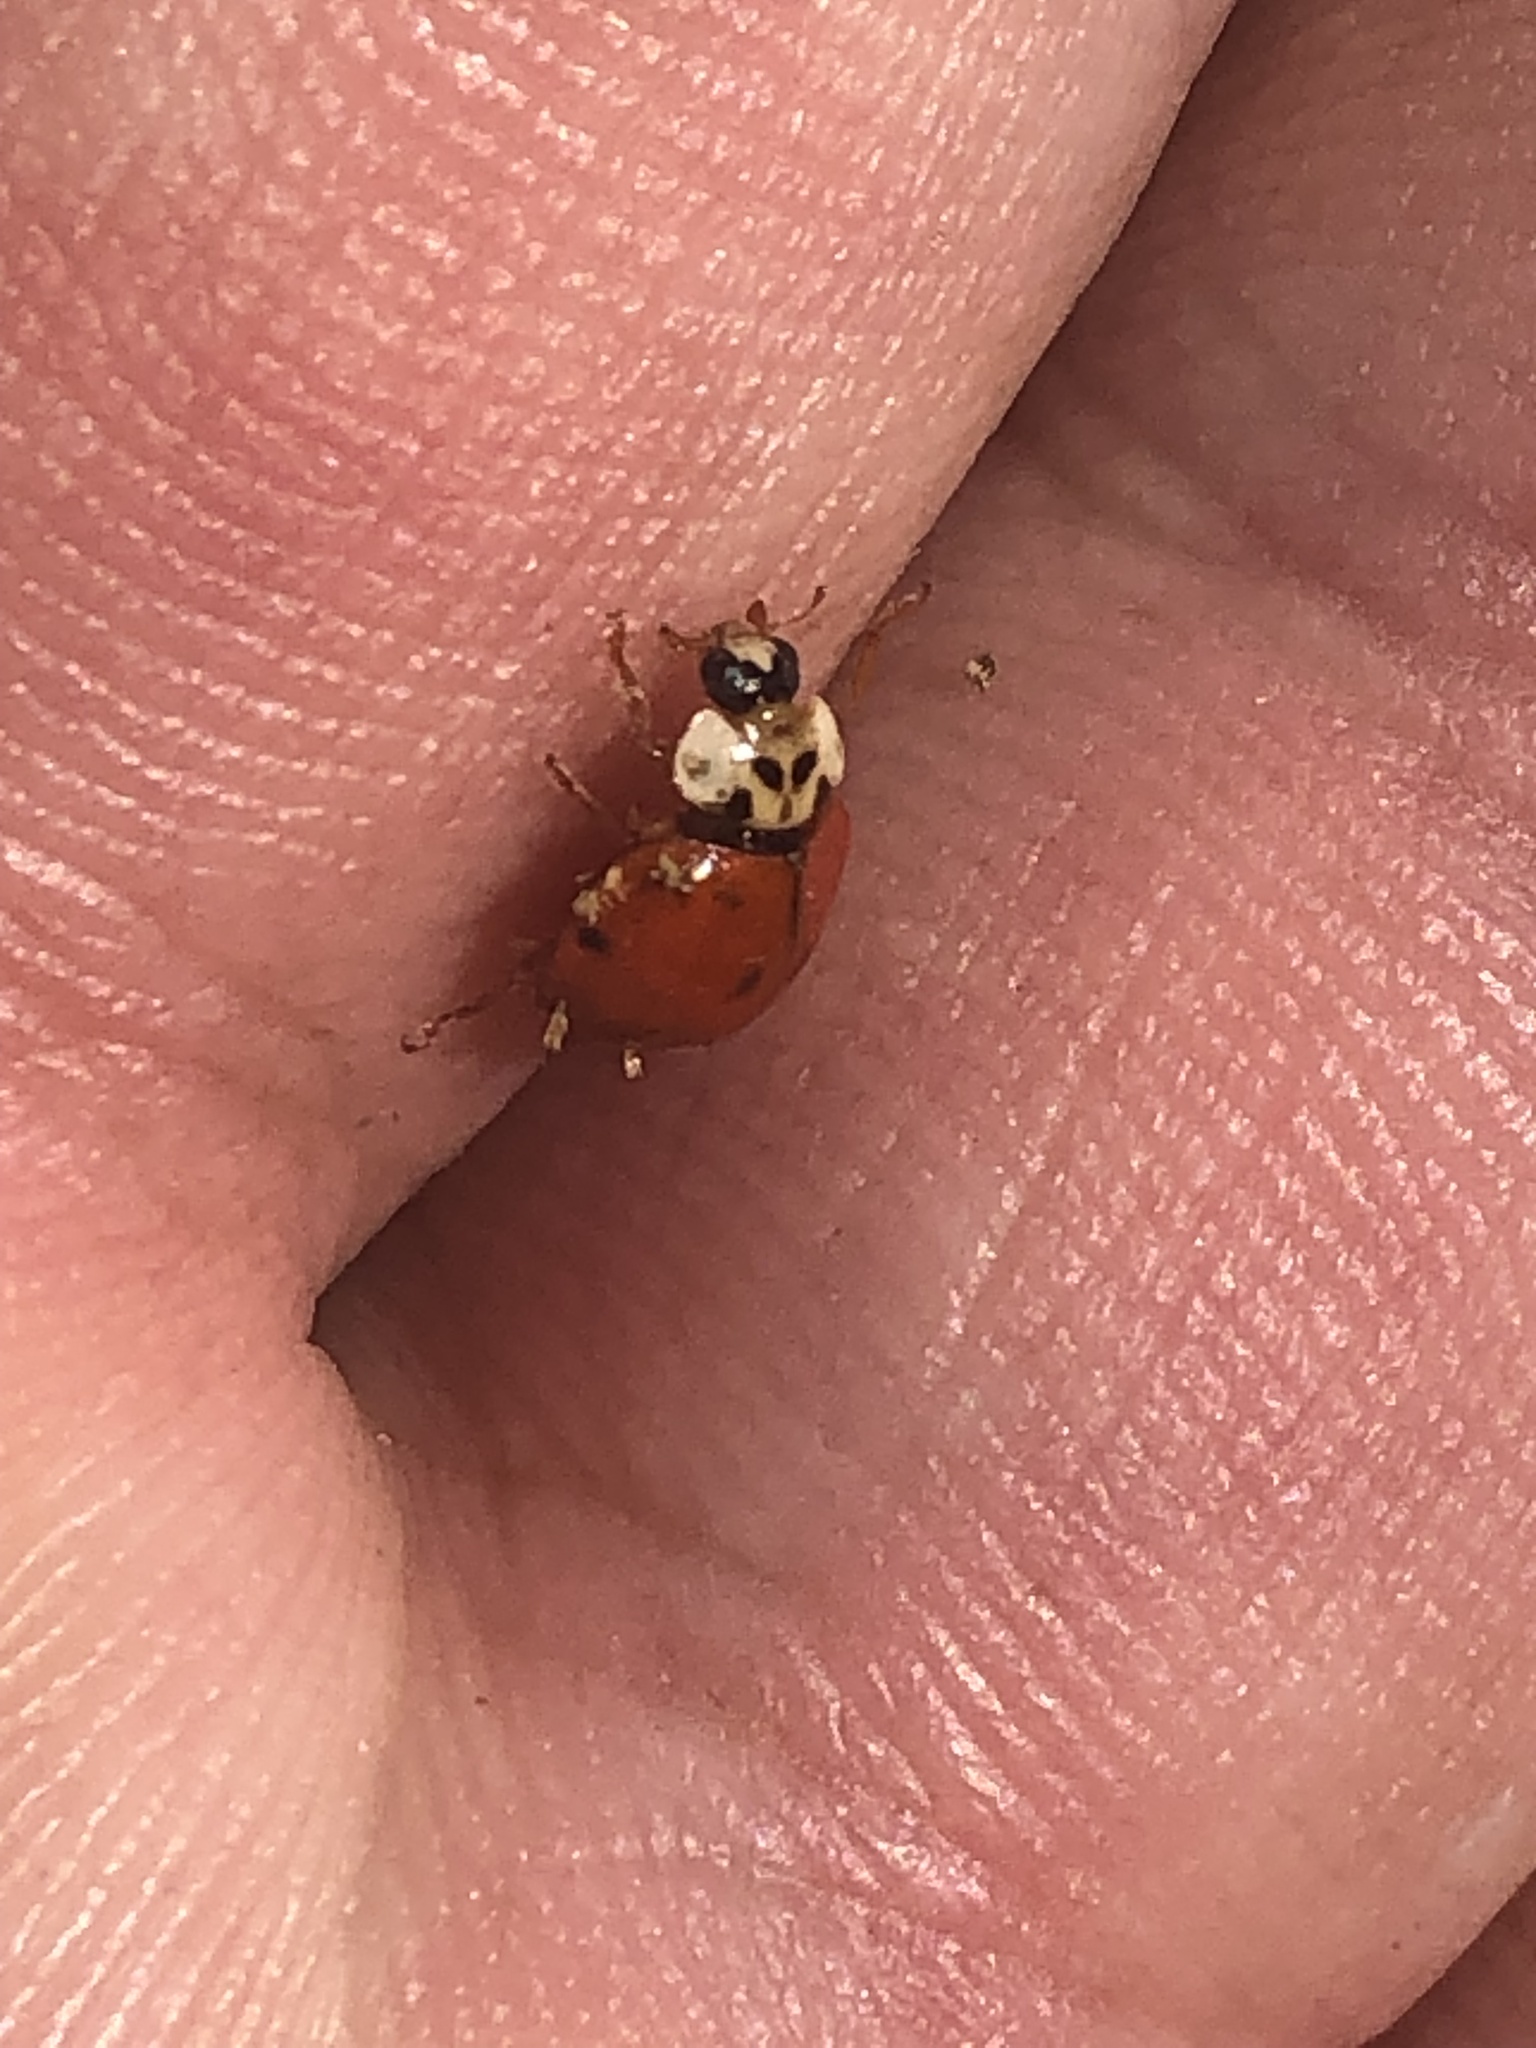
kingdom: Animalia
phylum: Arthropoda
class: Insecta
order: Coleoptera
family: Coccinellidae
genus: Harmonia
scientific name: Harmonia axyridis
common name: Harlequin ladybird
